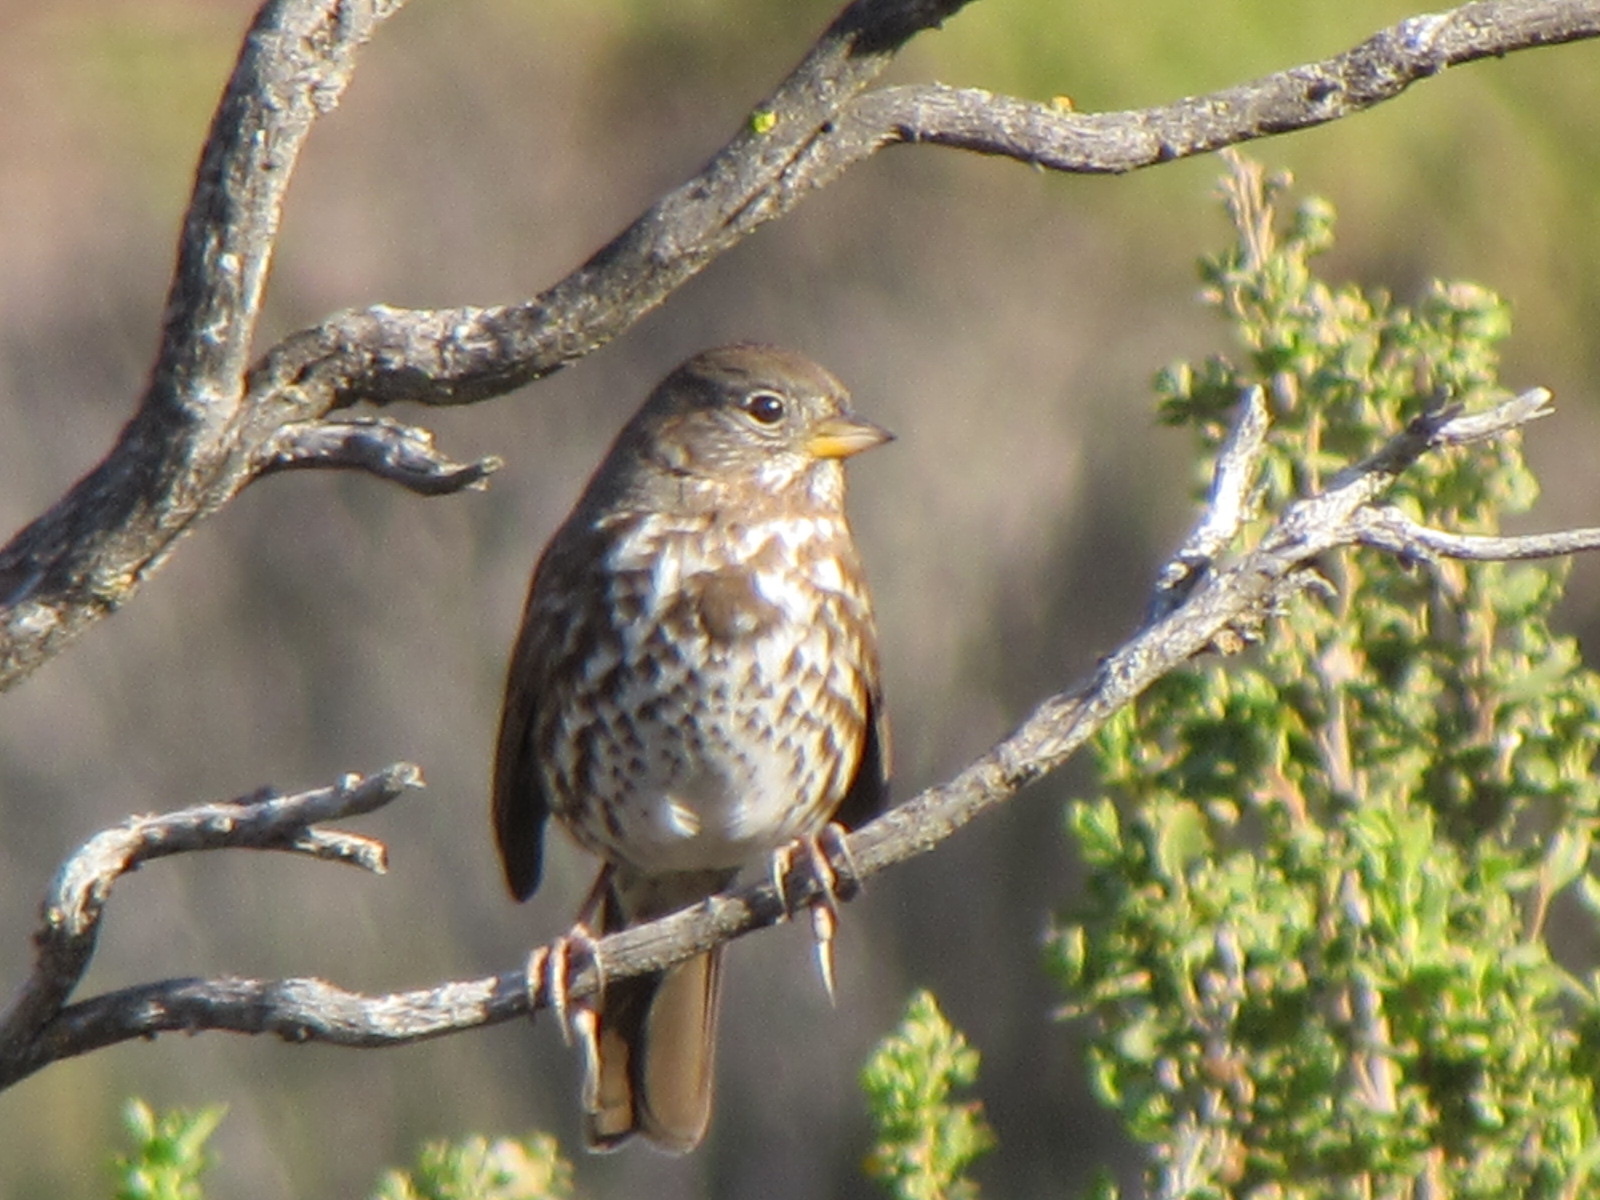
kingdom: Animalia
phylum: Chordata
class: Aves
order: Passeriformes
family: Passerellidae
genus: Passerella
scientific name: Passerella iliaca
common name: Fox sparrow
